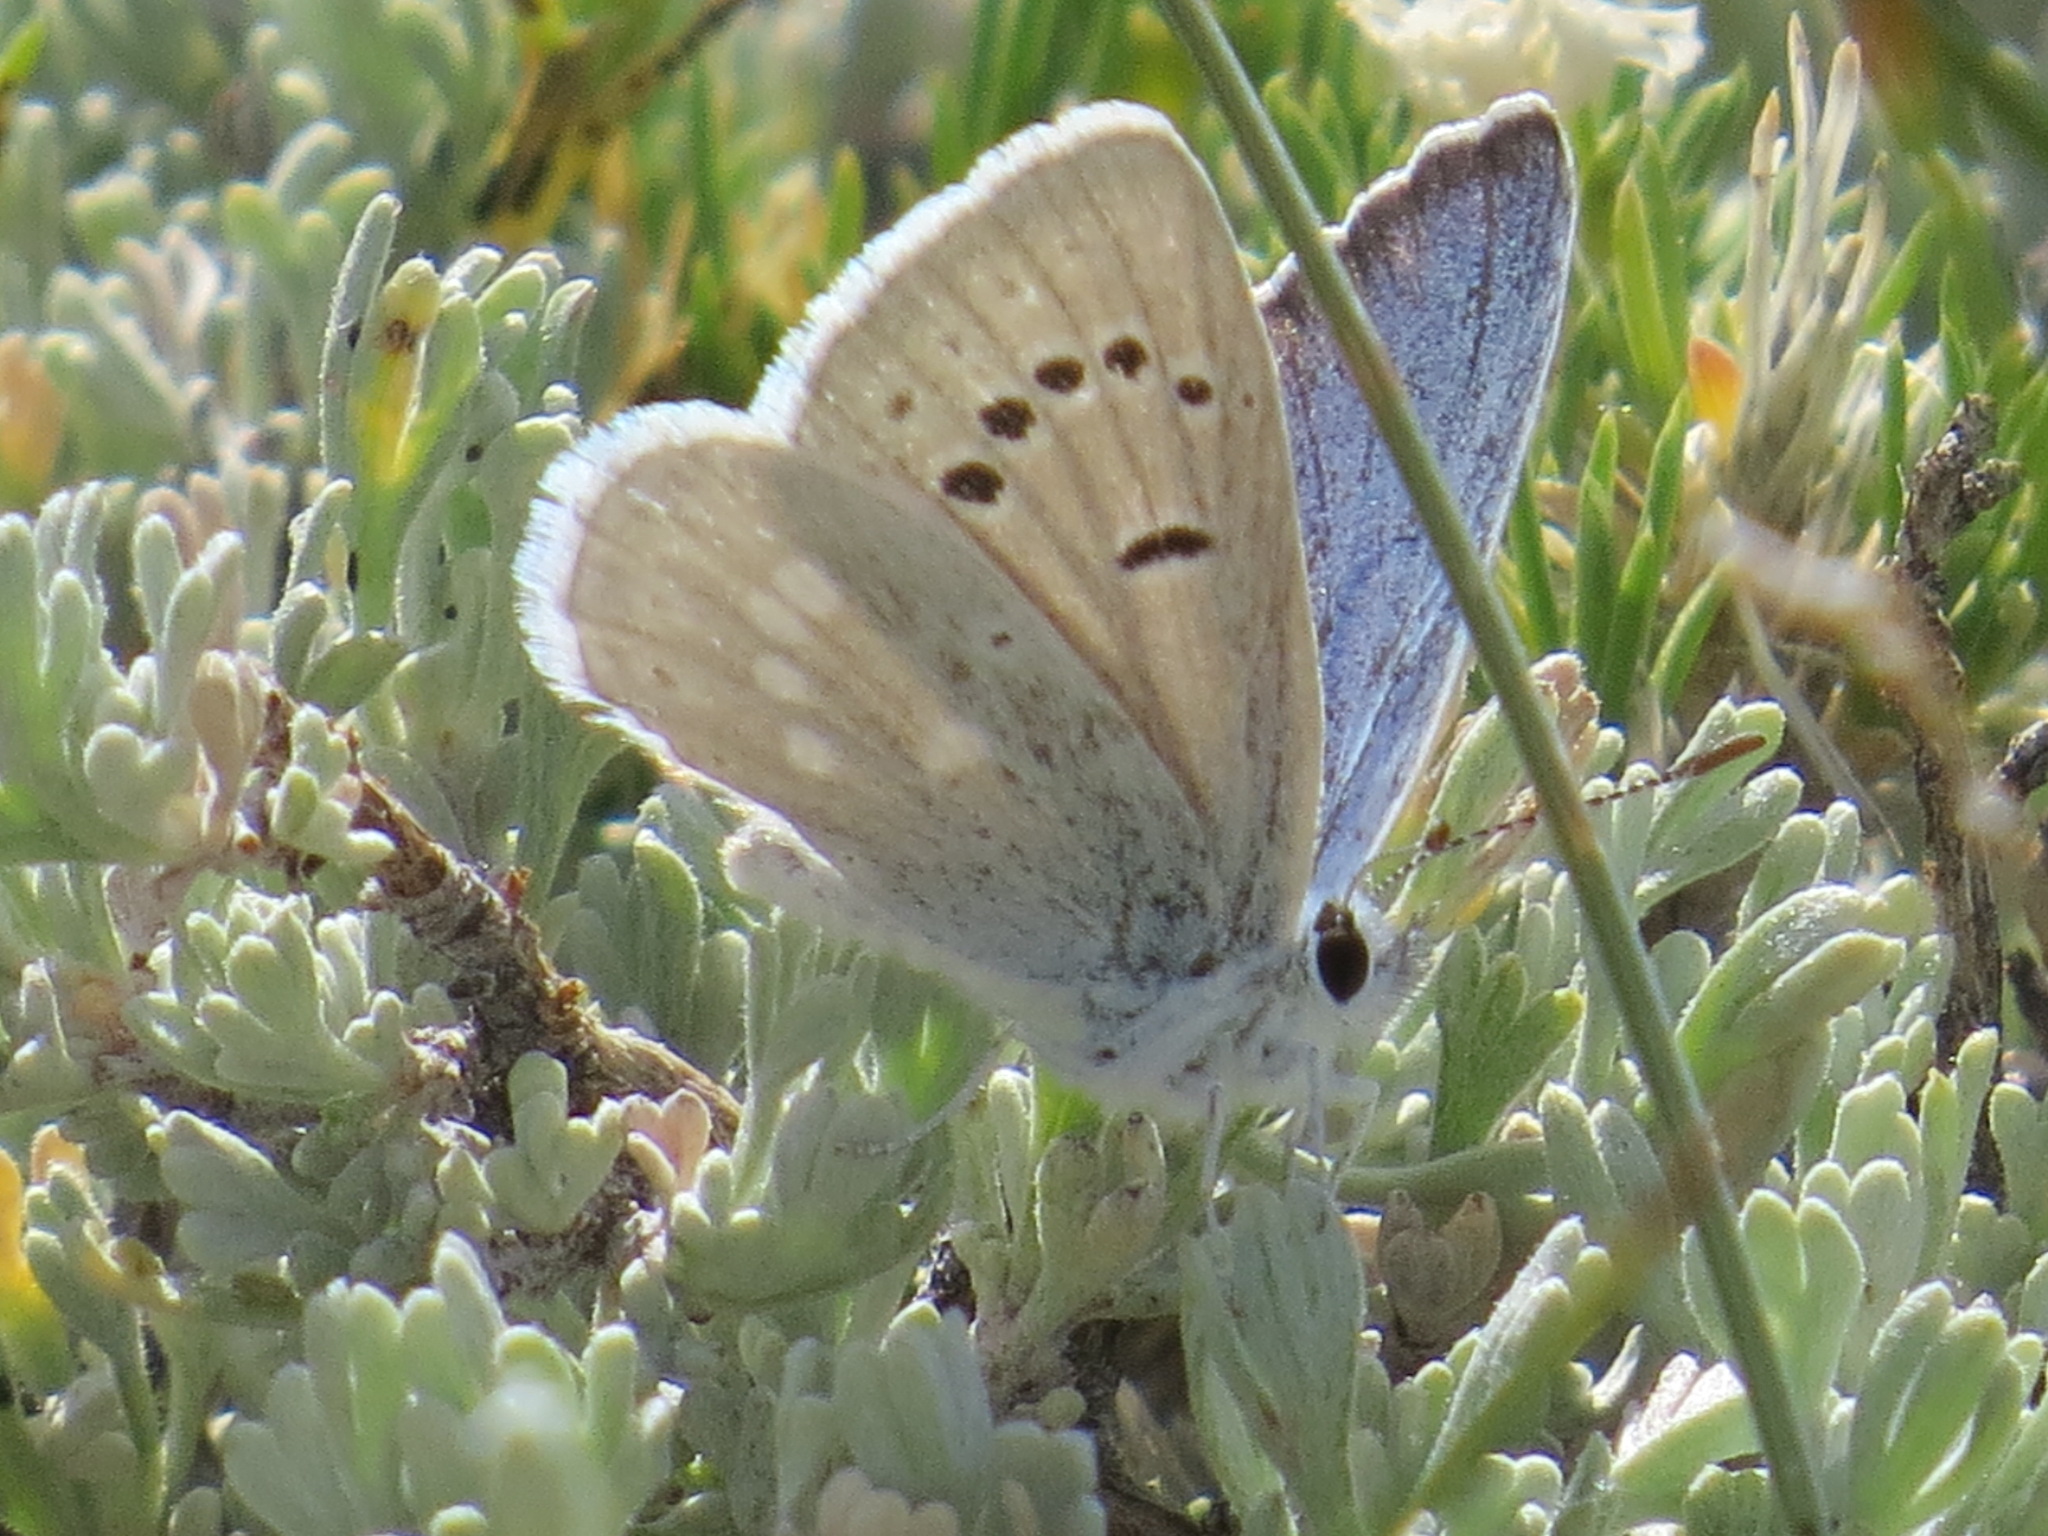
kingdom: Animalia
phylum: Arthropoda
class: Insecta
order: Lepidoptera
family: Lycaenidae
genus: Icaricia
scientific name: Icaricia icarioides
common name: Boisduval's blue
